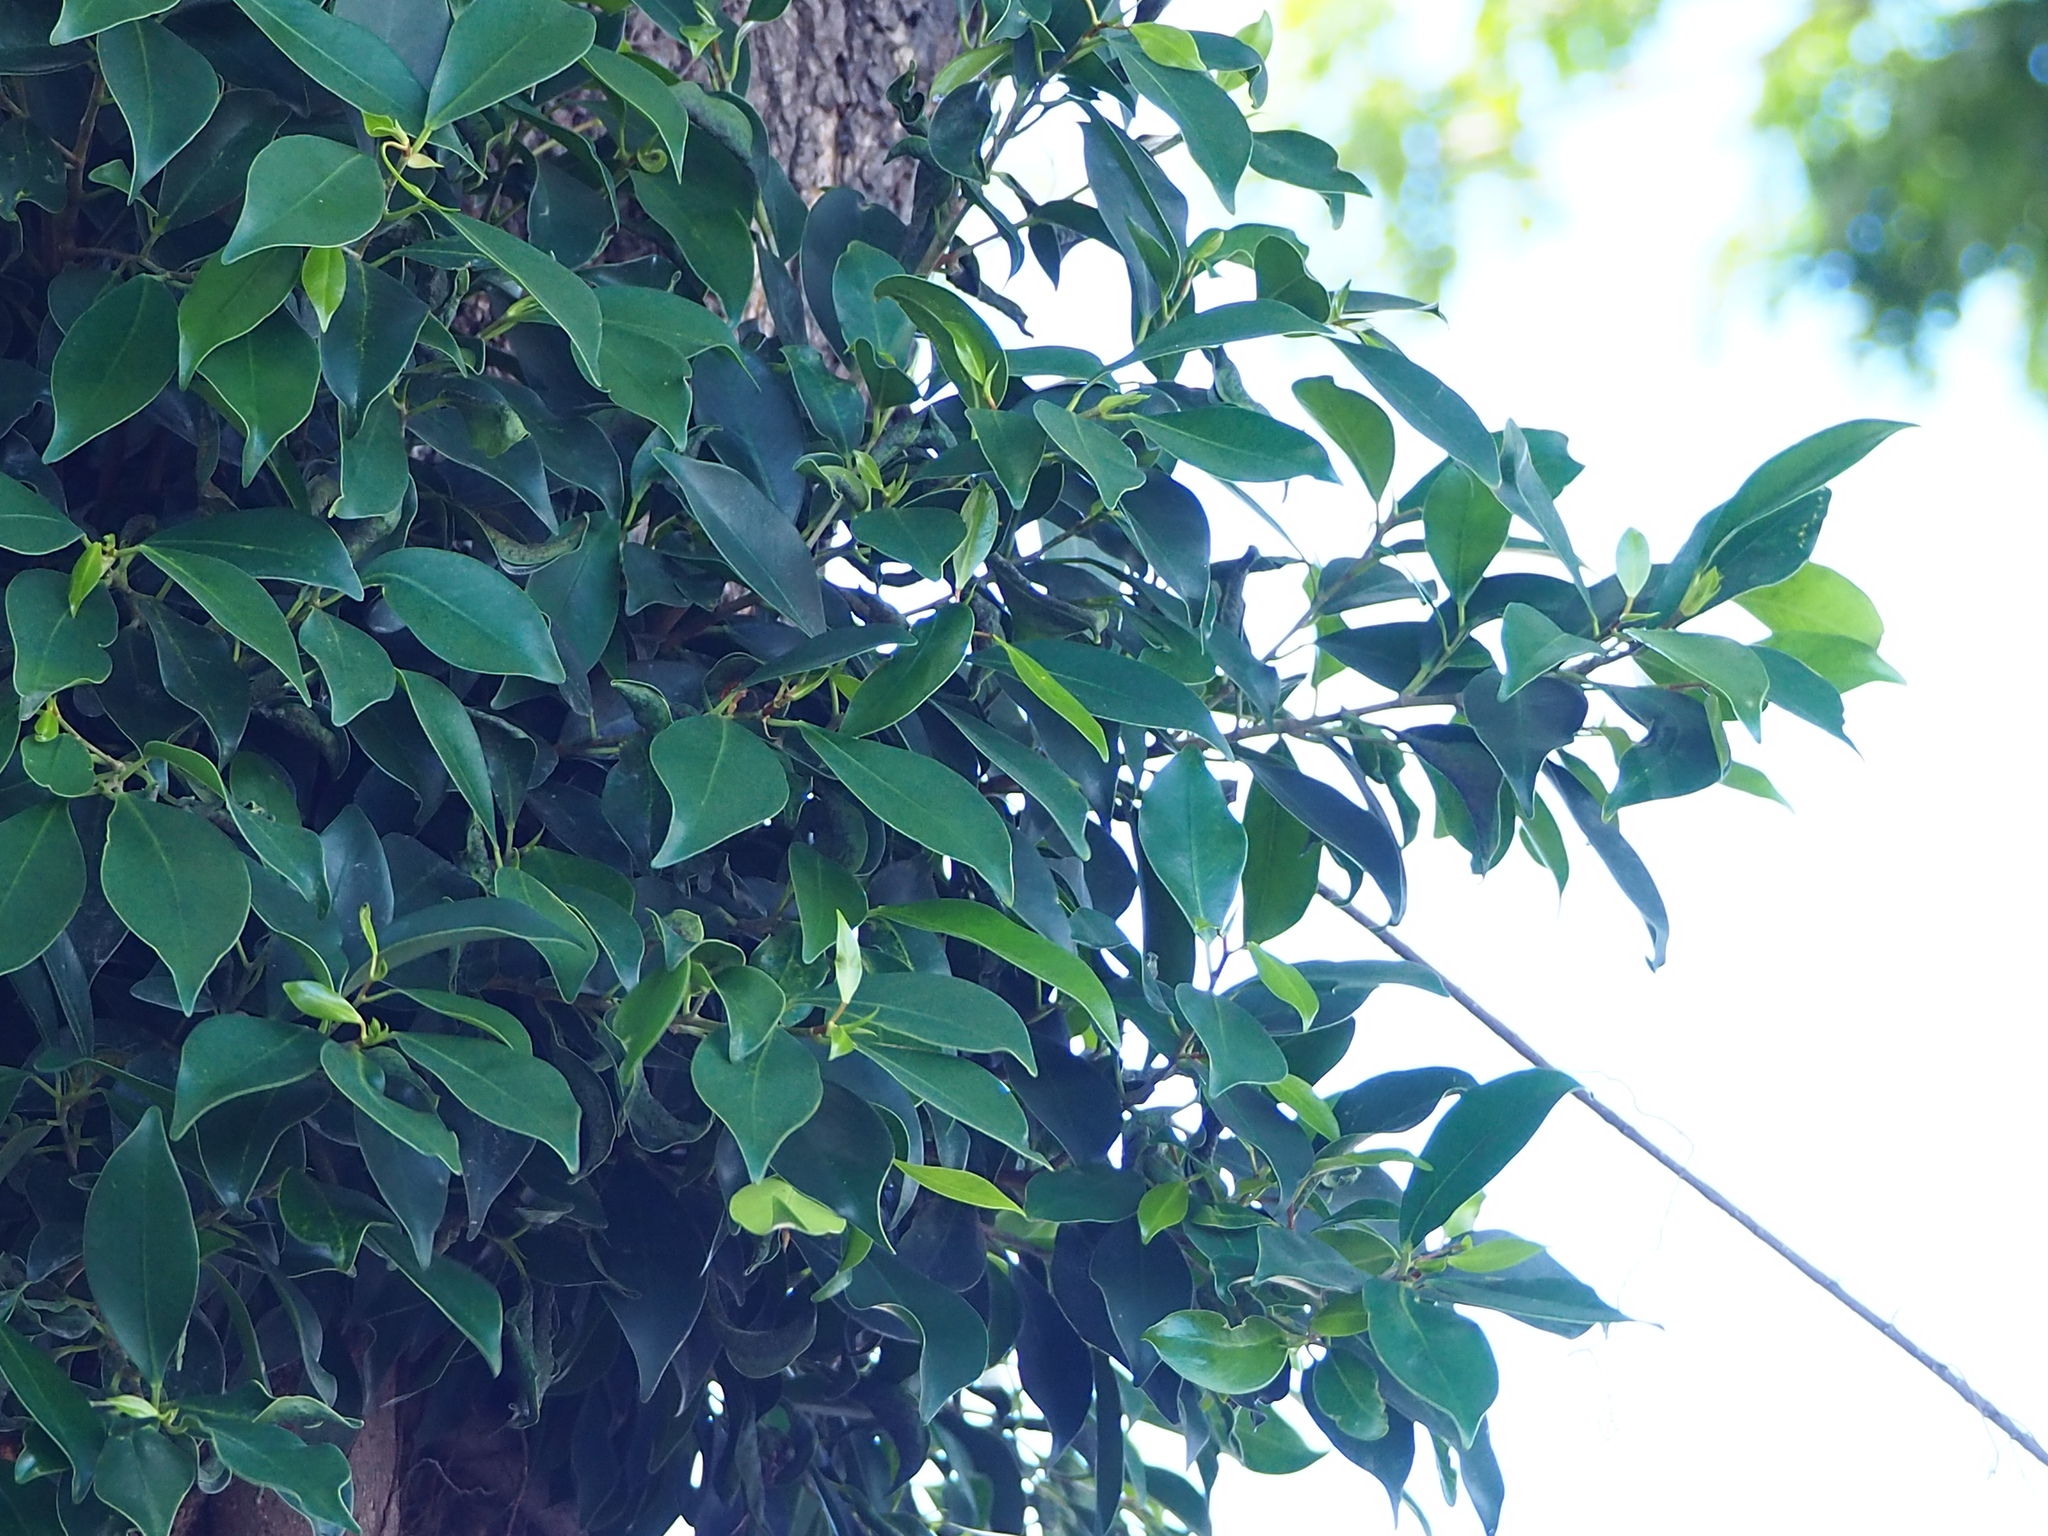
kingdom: Plantae
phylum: Tracheophyta
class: Magnoliopsida
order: Rosales
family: Moraceae
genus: Ficus
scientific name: Ficus microcarpa
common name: Chinese banyan
